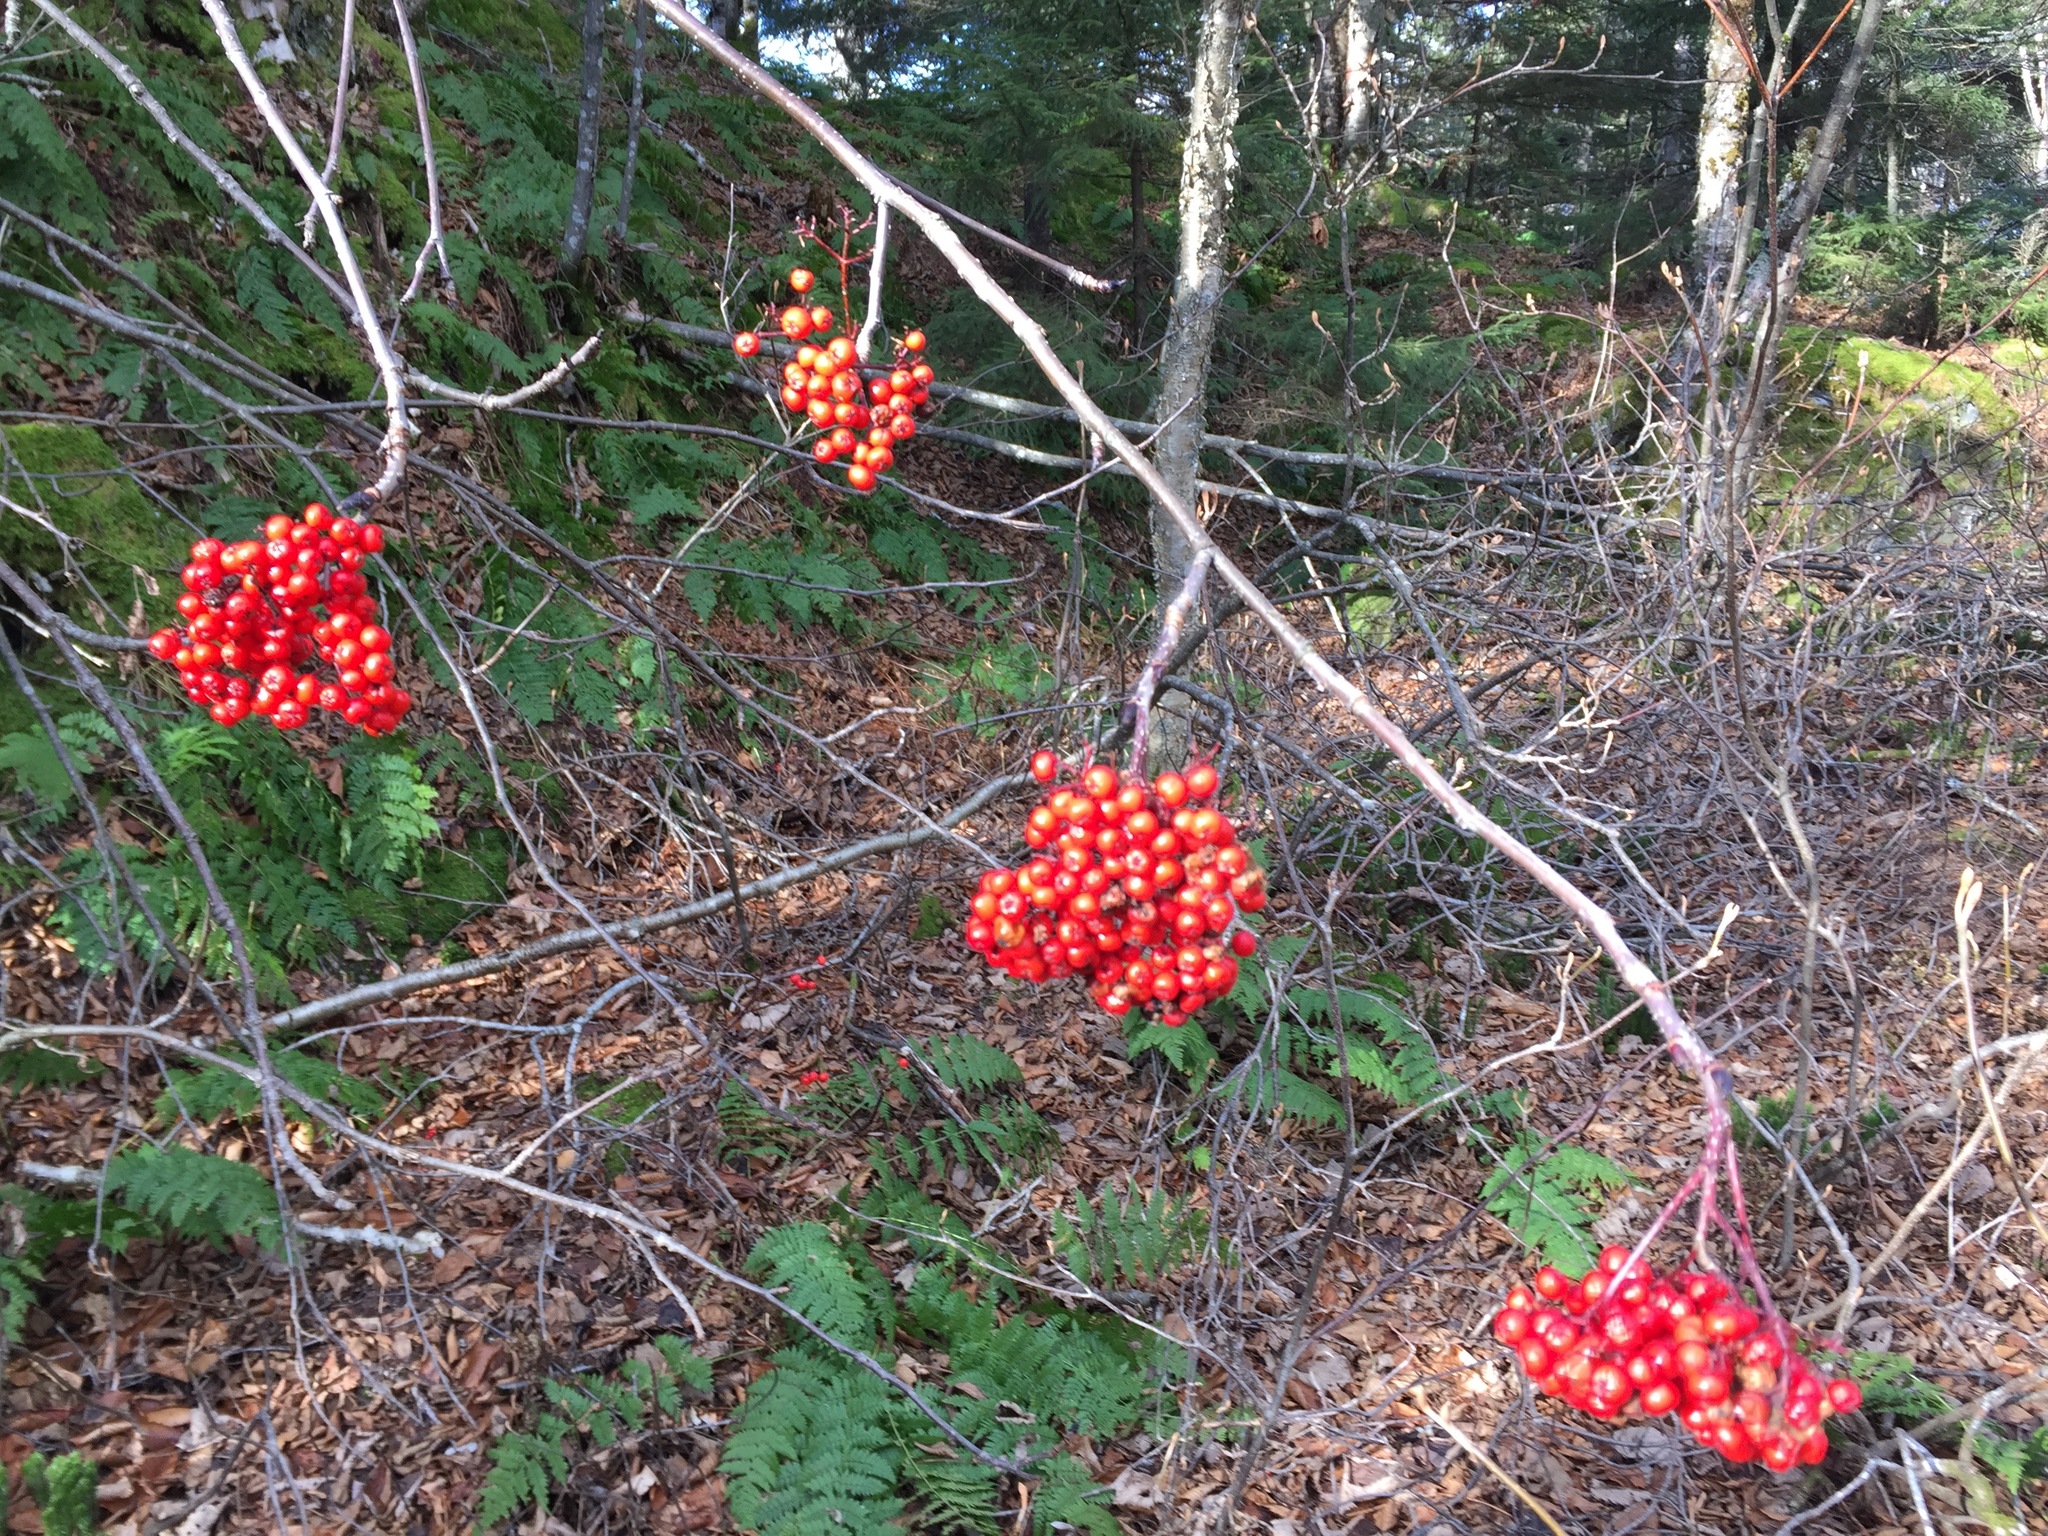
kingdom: Plantae
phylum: Tracheophyta
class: Magnoliopsida
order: Rosales
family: Rosaceae
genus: Sorbus
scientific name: Sorbus americana
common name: American mountain-ash
